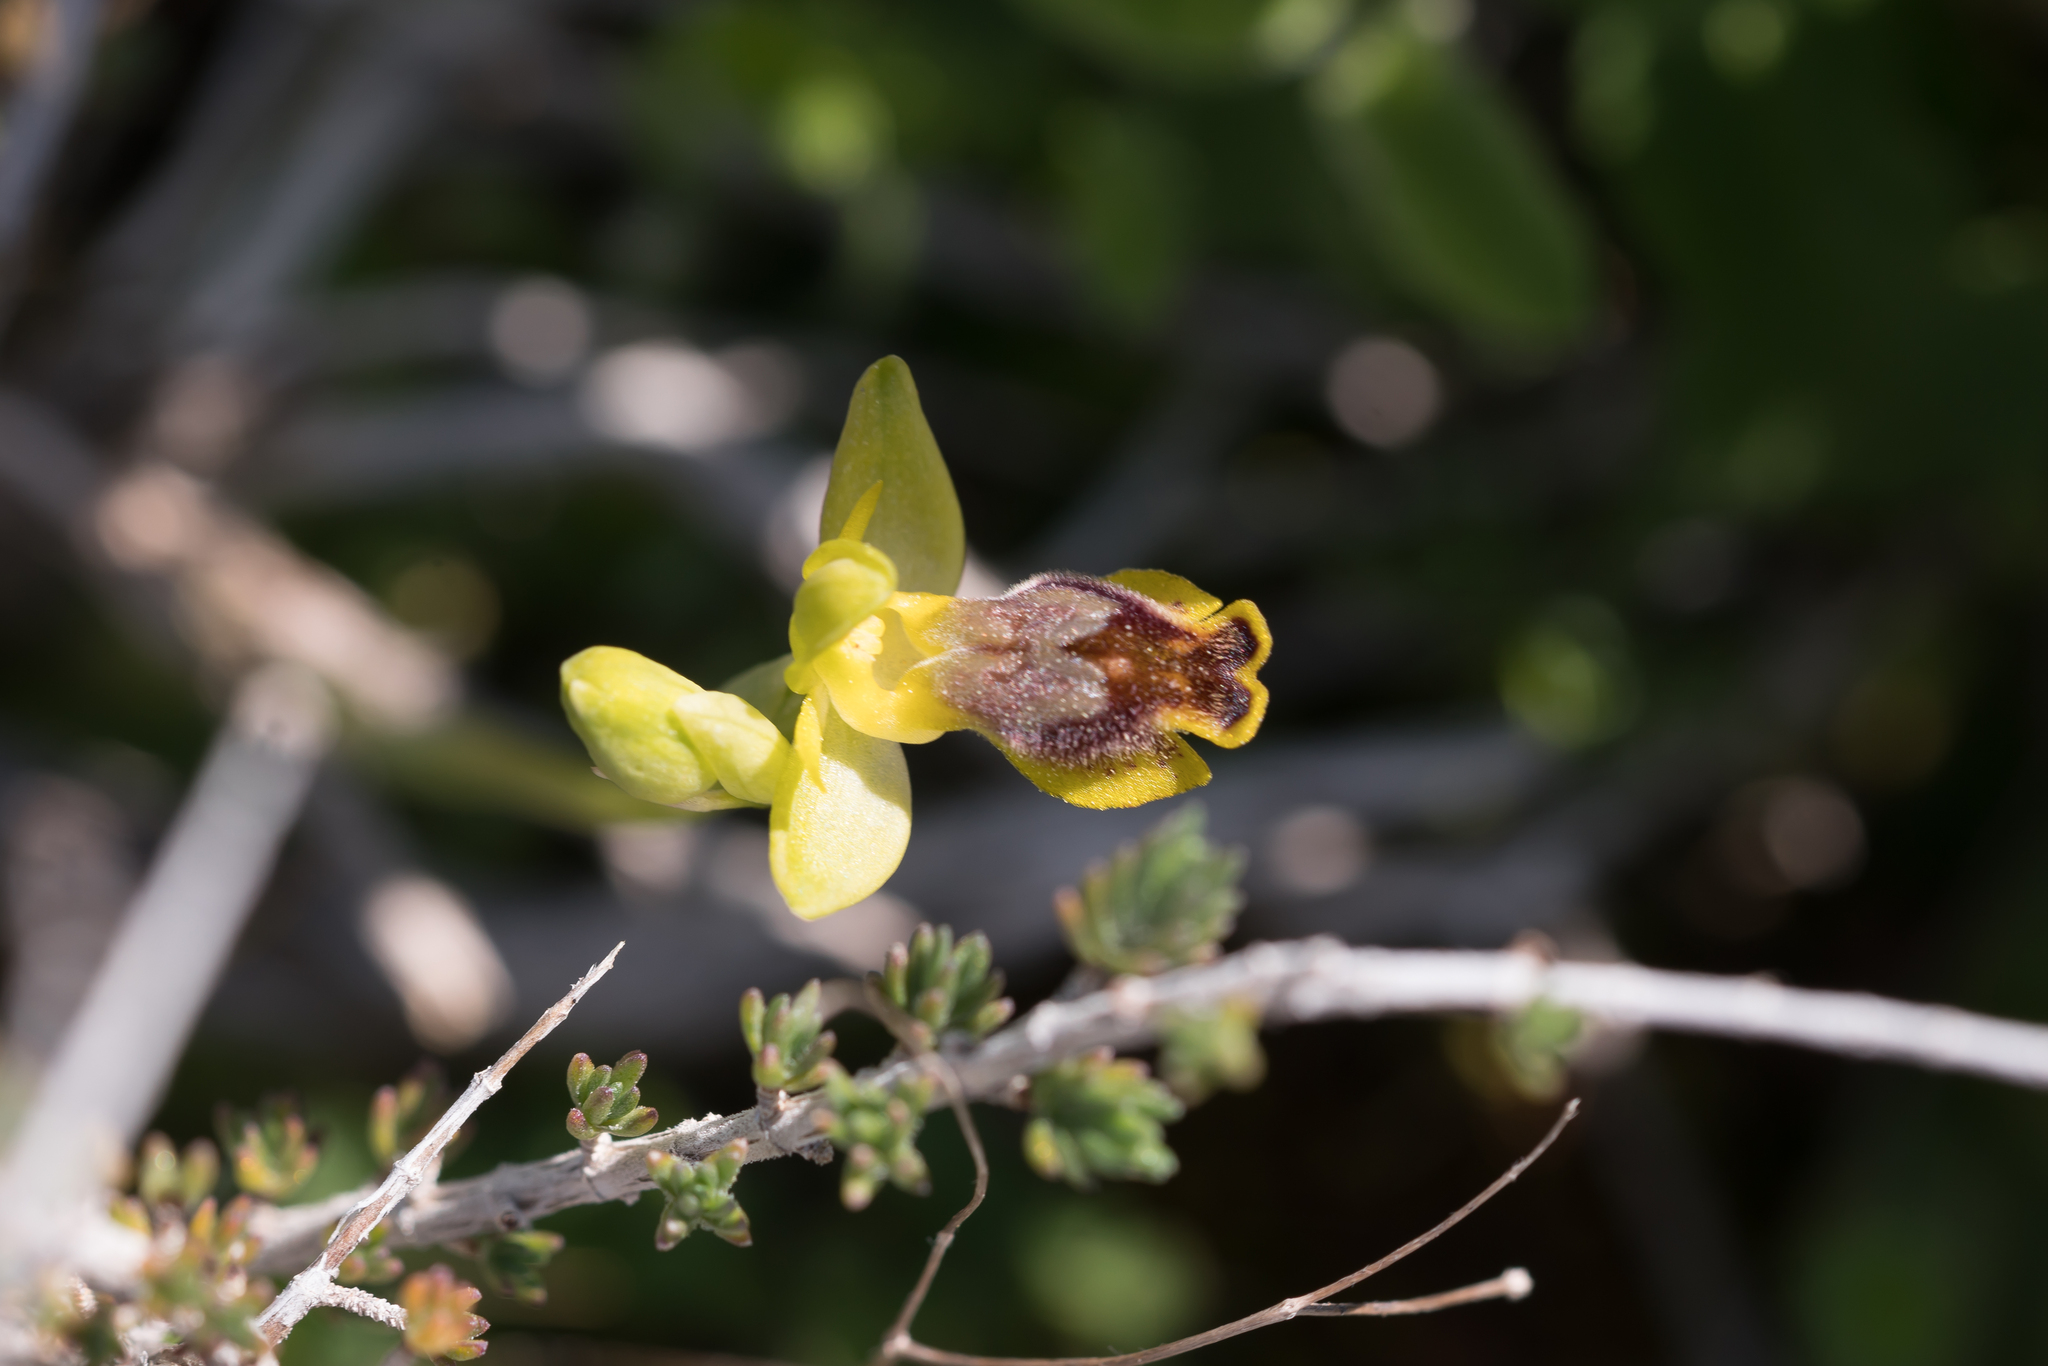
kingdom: Plantae
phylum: Tracheophyta
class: Liliopsida
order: Asparagales
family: Orchidaceae
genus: Ophrys
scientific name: Ophrys lutea
